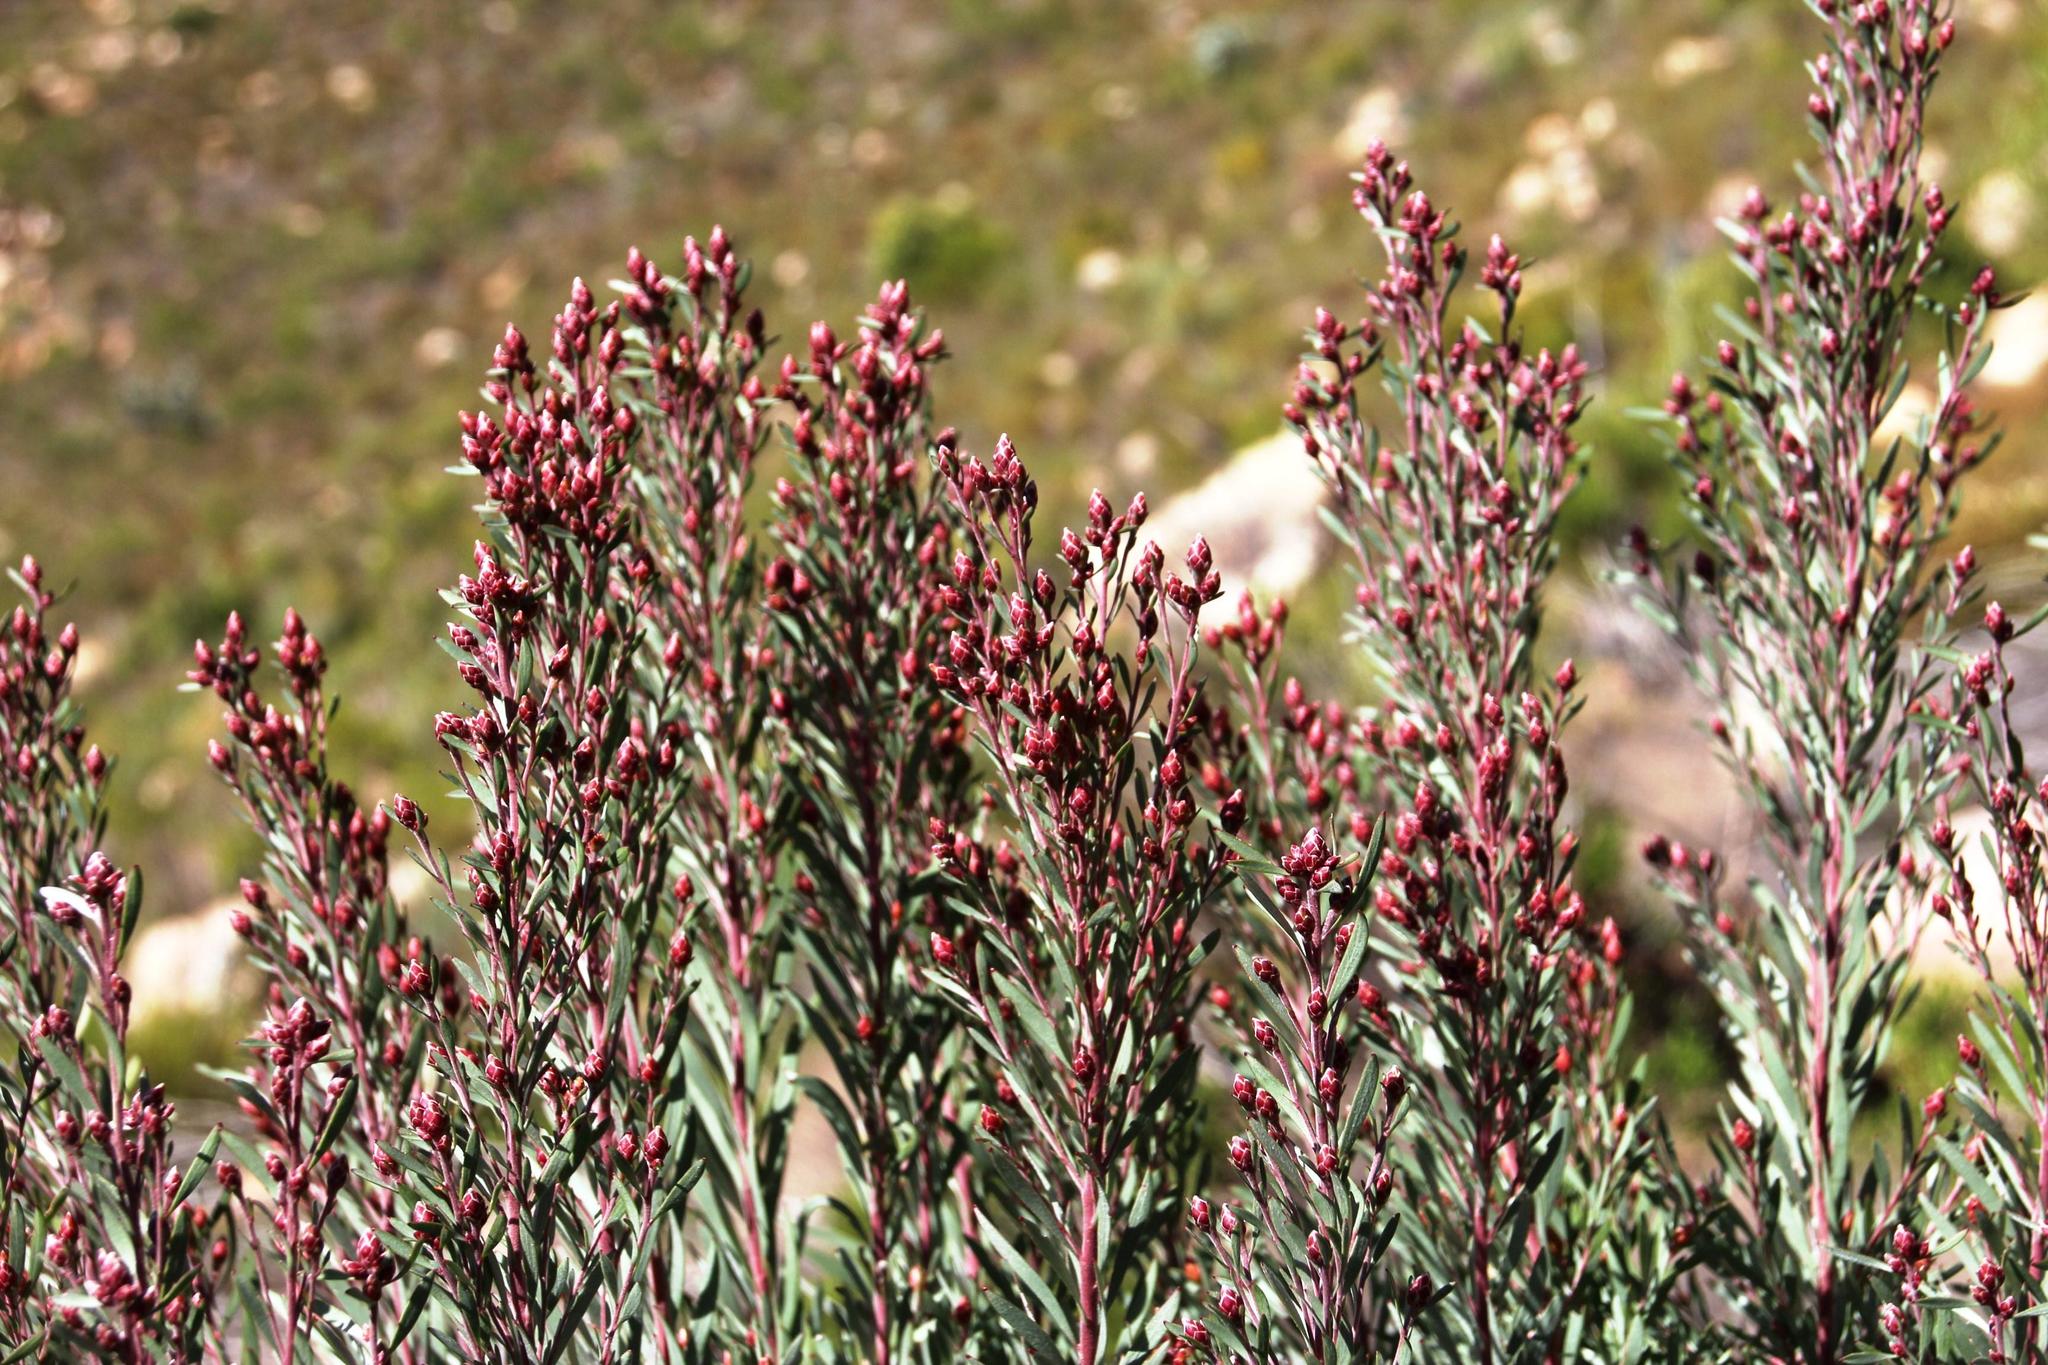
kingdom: Plantae
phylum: Tracheophyta
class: Magnoliopsida
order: Proteales
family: Proteaceae
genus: Leucadendron
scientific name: Leucadendron rubrum
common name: Spinning top
